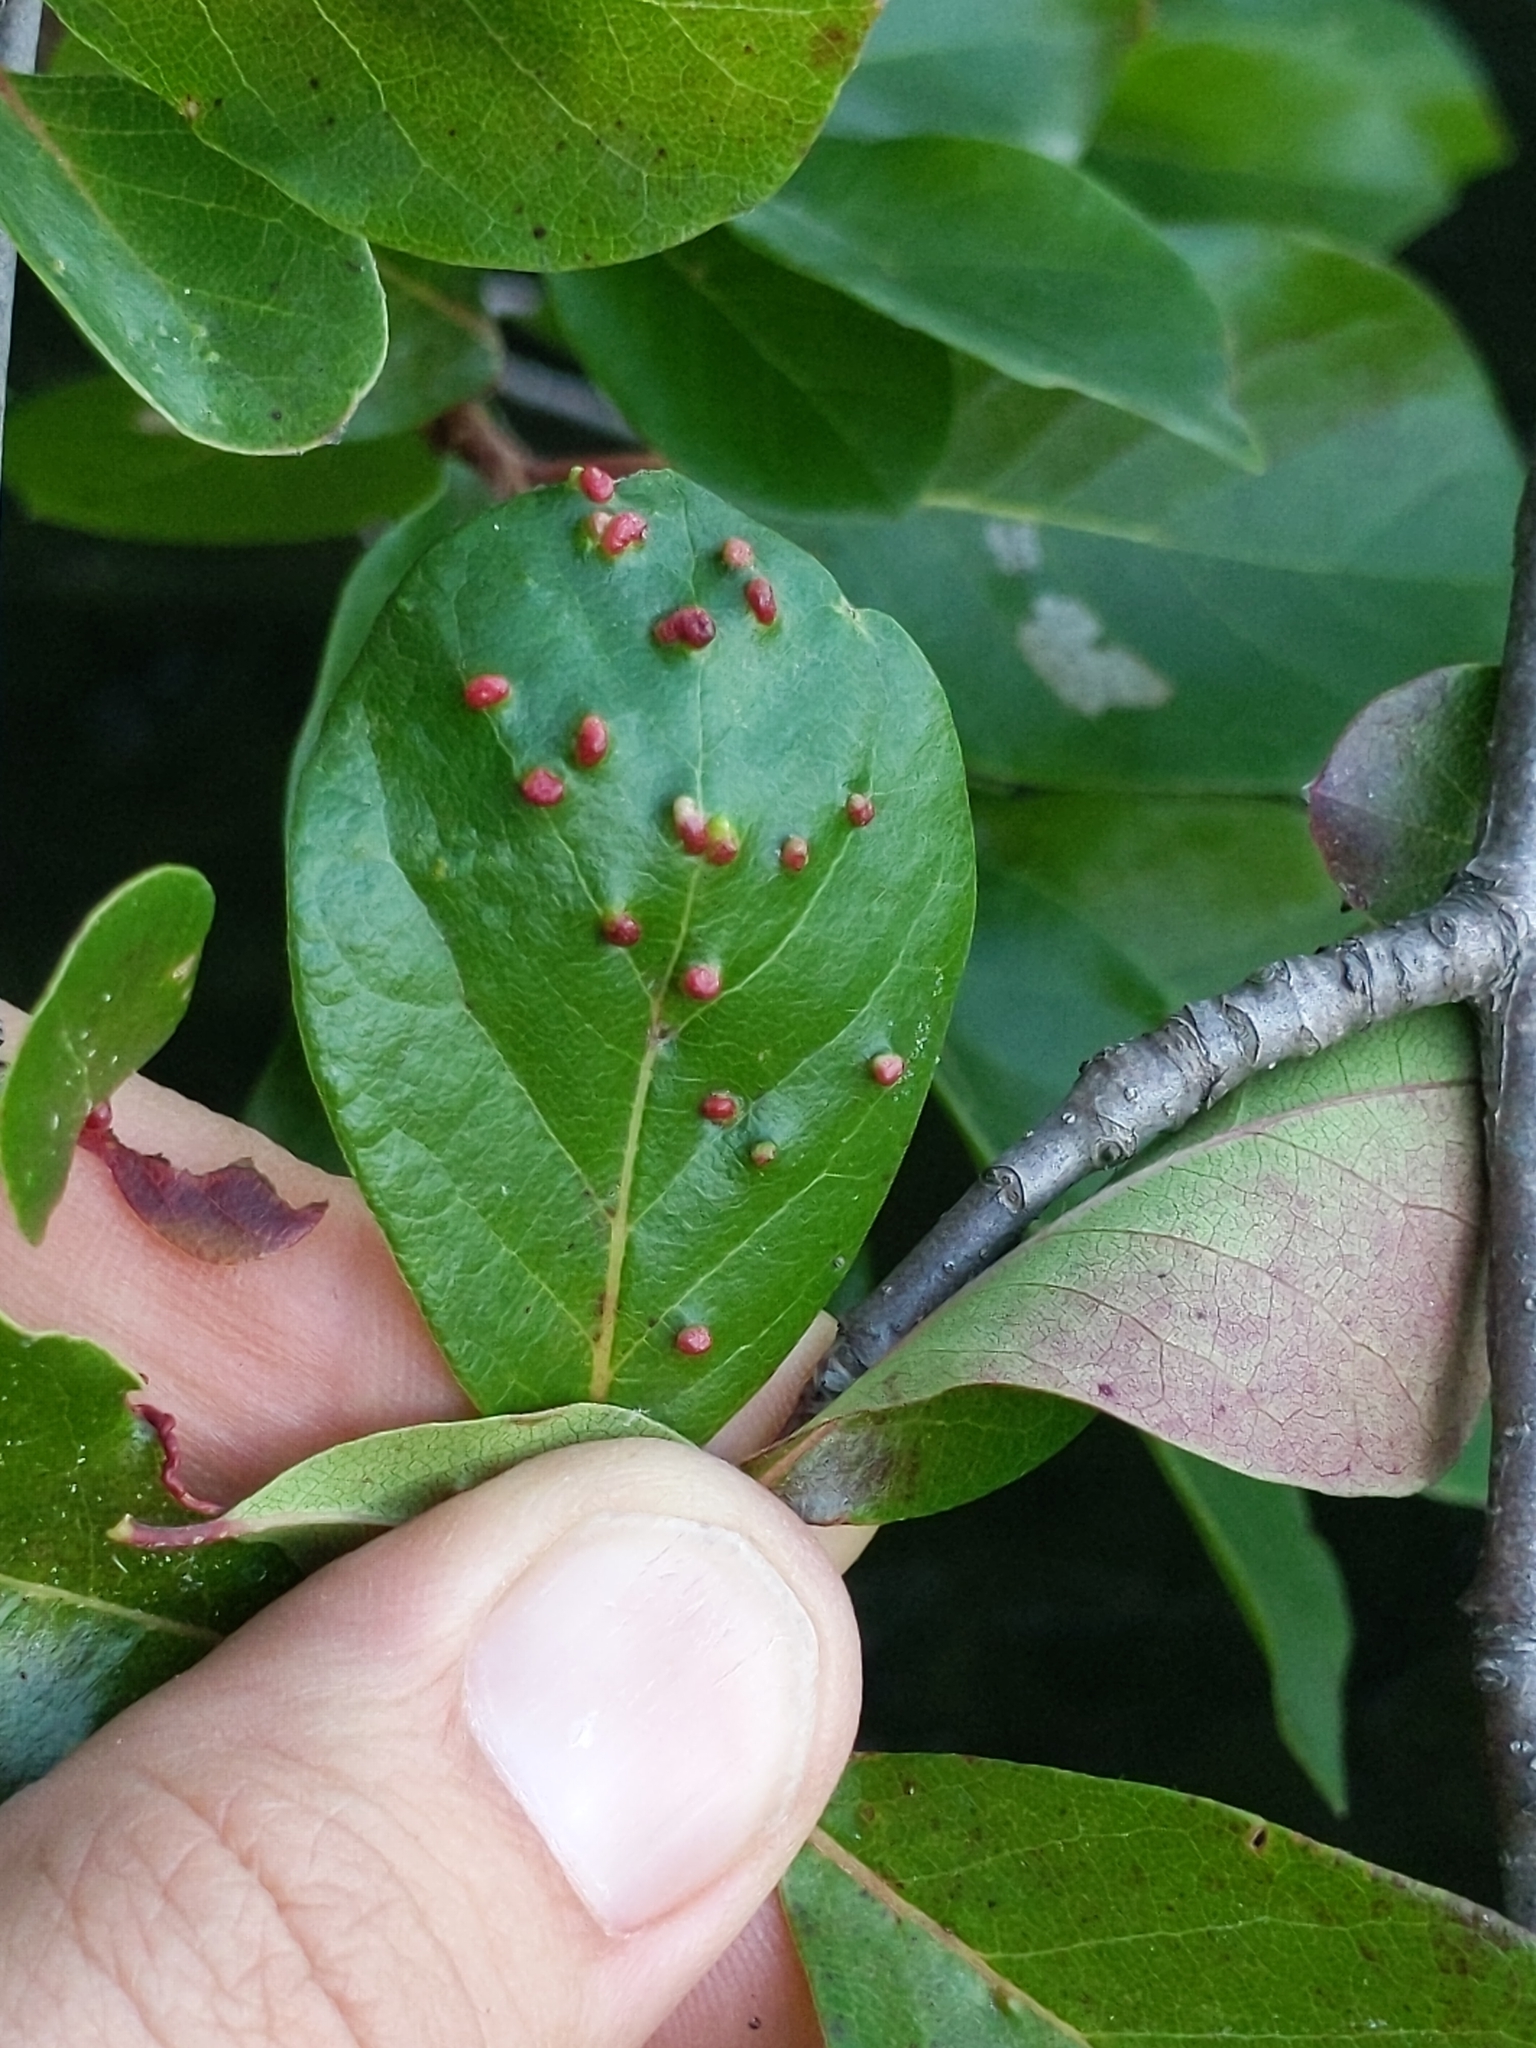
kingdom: Animalia
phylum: Arthropoda
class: Arachnida
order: Trombidiformes
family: Eriophyidae
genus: Aceria
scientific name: Aceria
